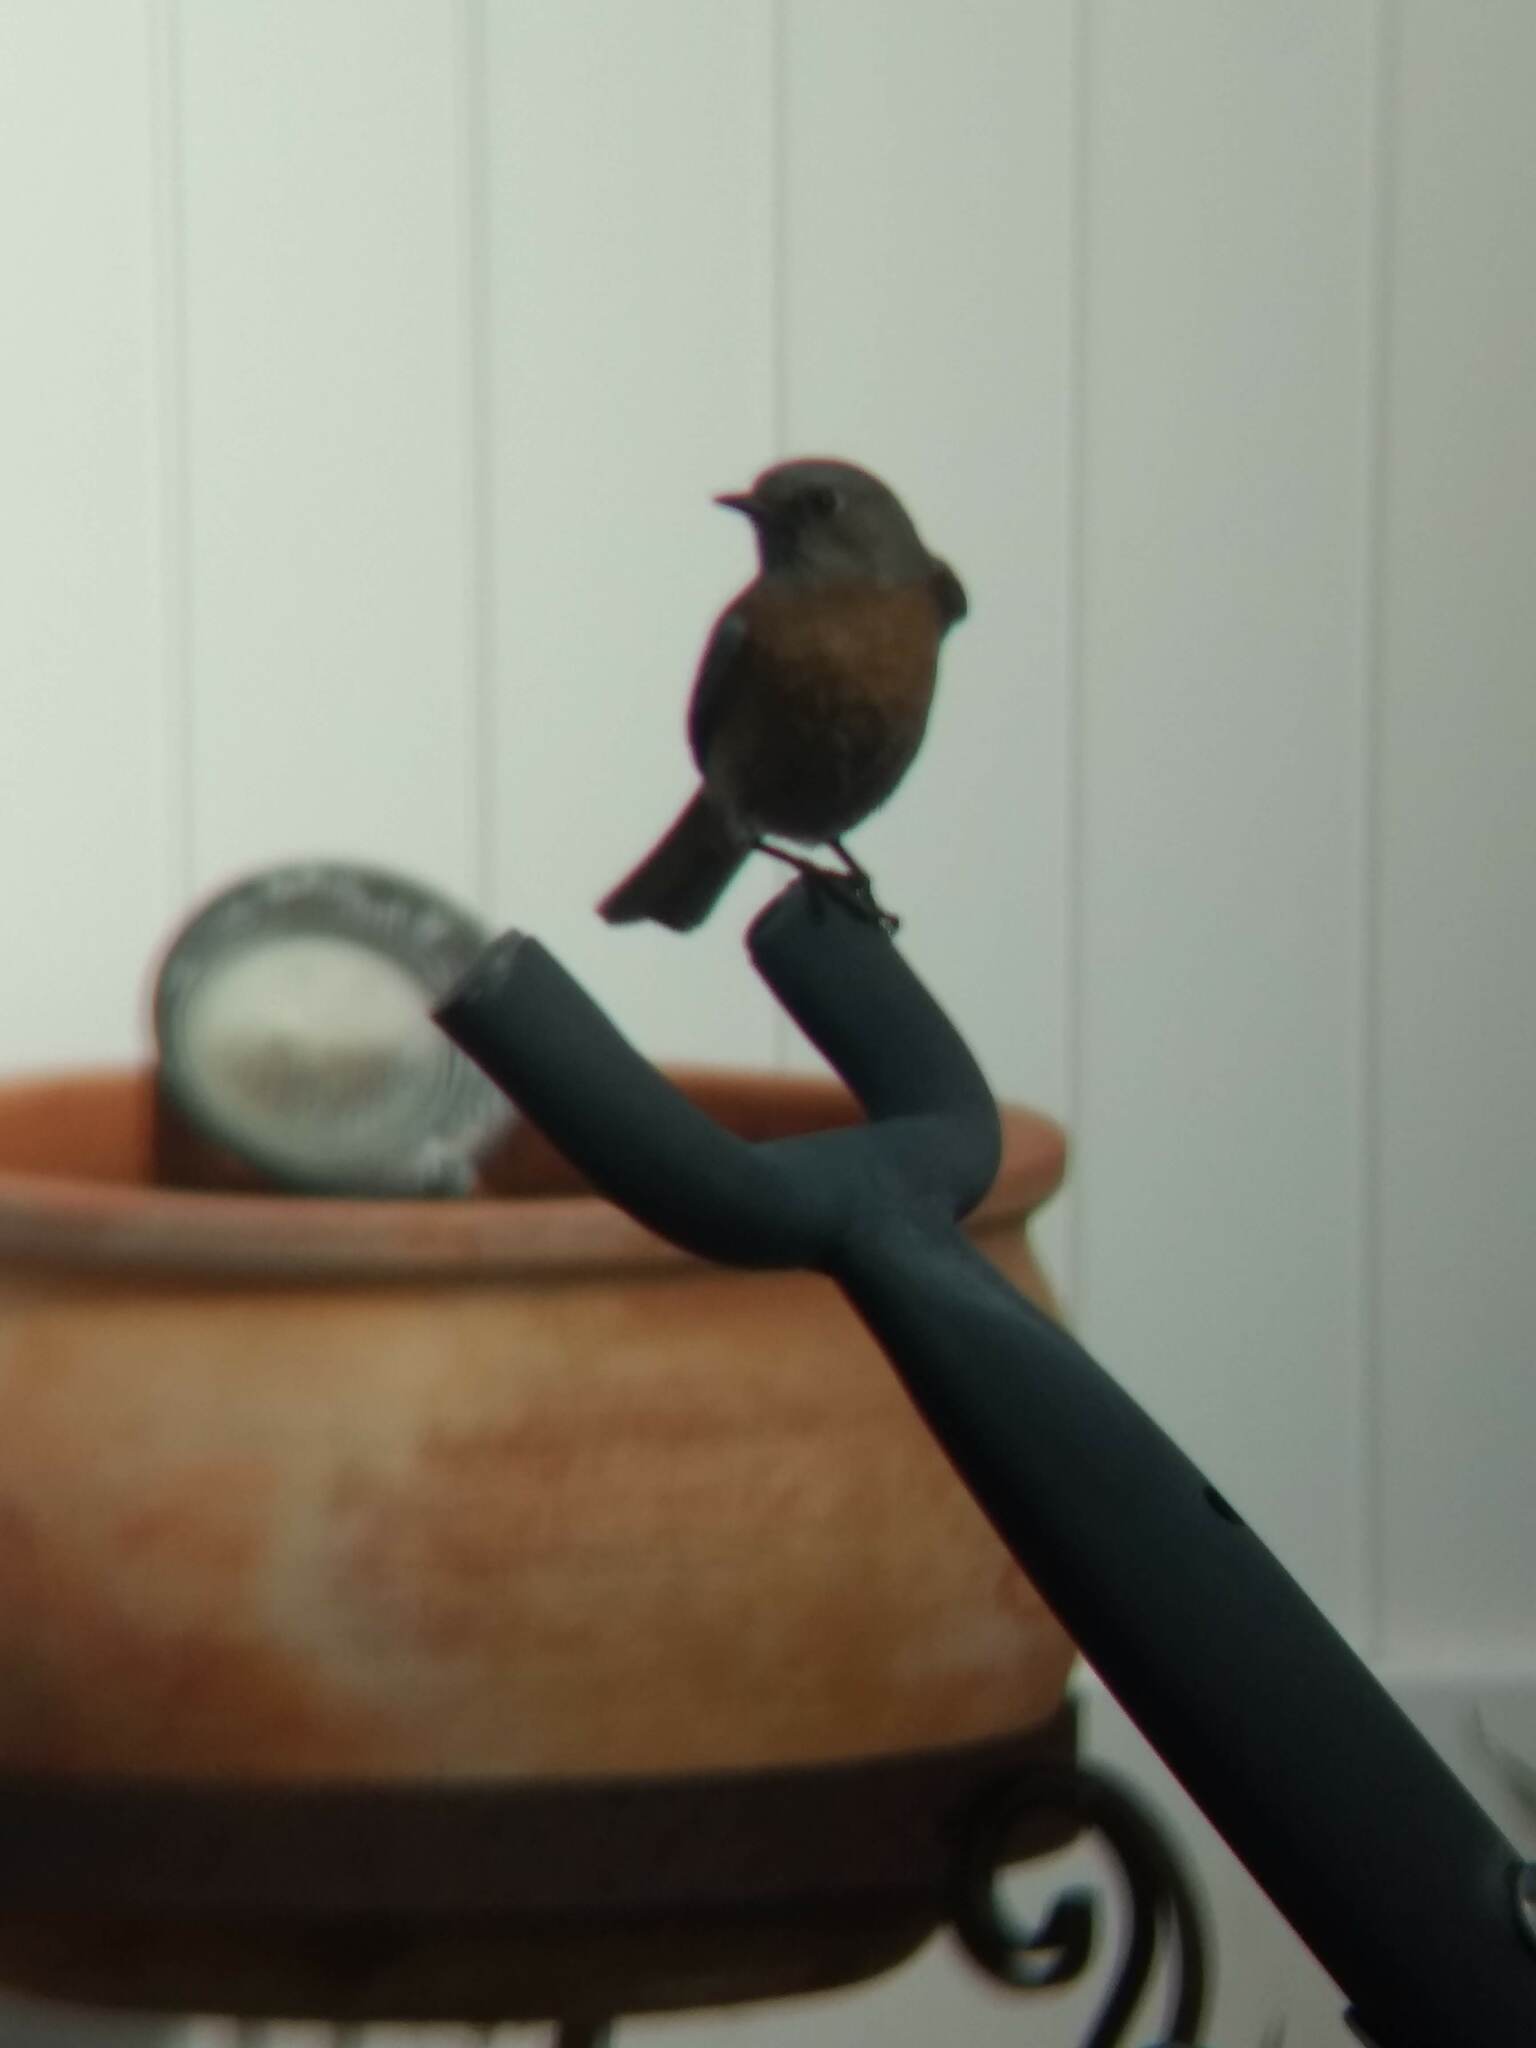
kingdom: Animalia
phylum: Chordata
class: Aves
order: Passeriformes
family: Turdidae
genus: Sialia
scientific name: Sialia mexicana
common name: Western bluebird
